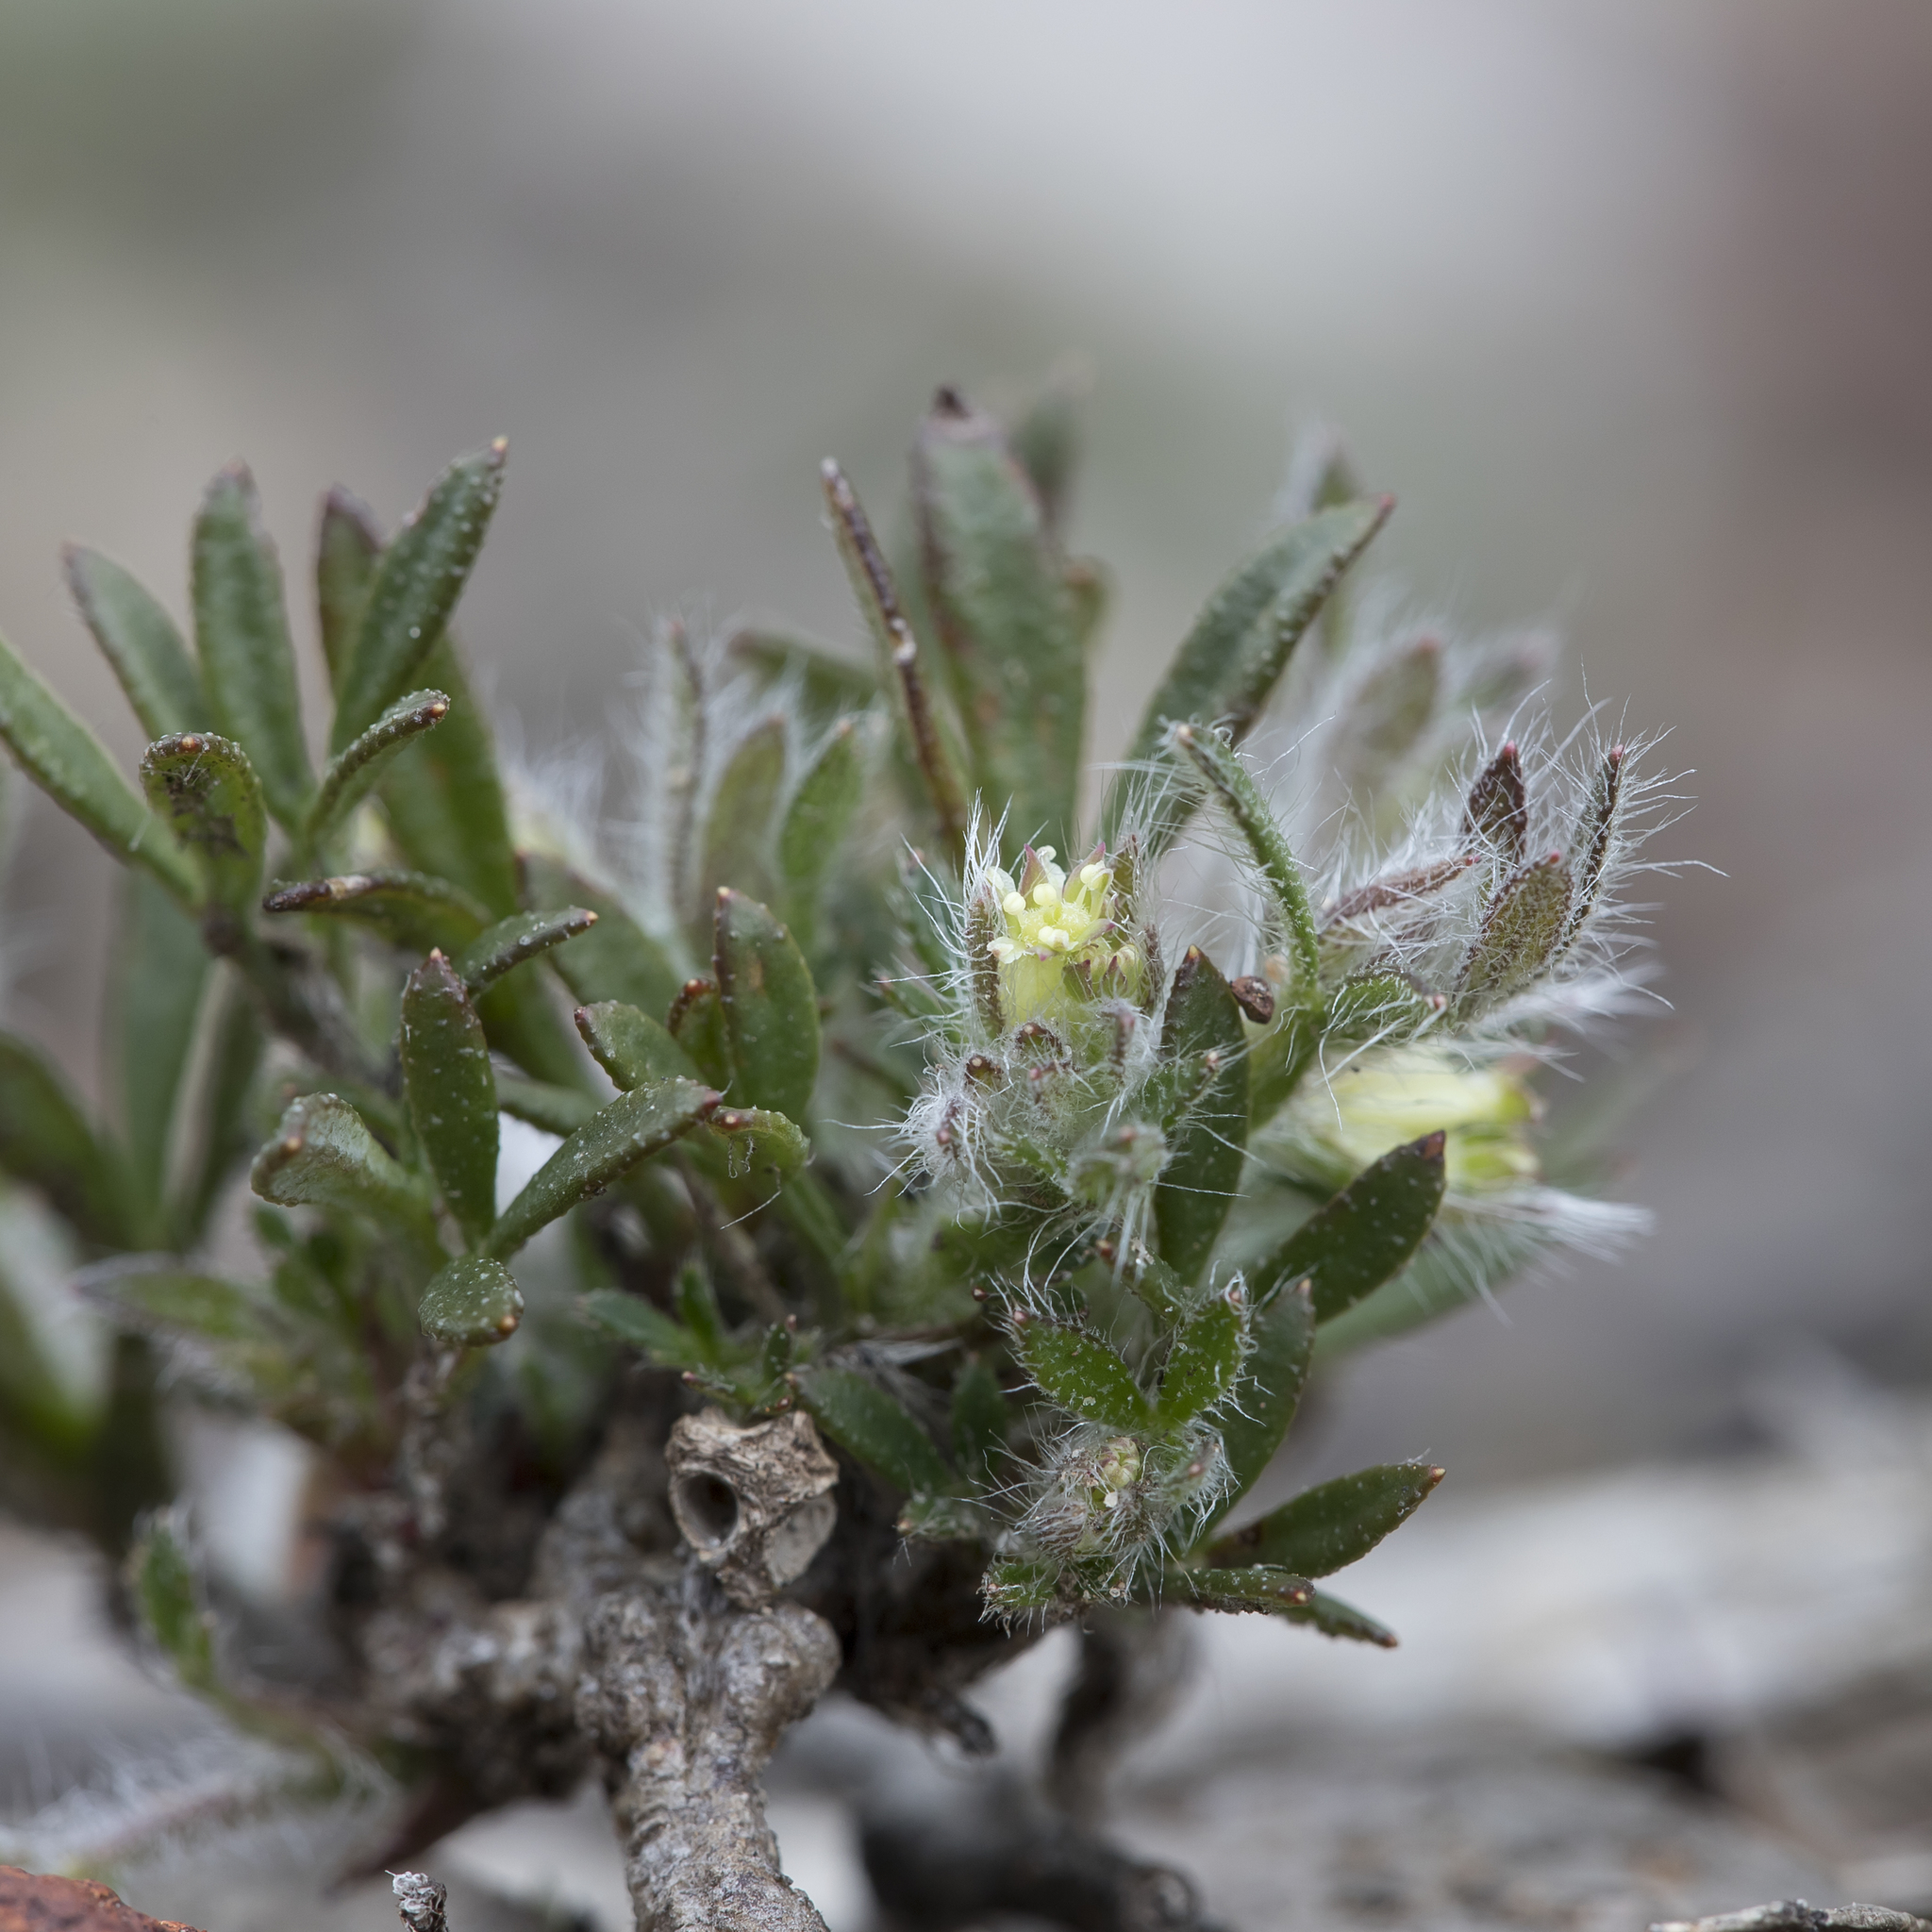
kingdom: Plantae
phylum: Tracheophyta
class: Magnoliopsida
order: Apiales
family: Apiaceae
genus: Xanthosia
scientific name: Xanthosia huegelii
